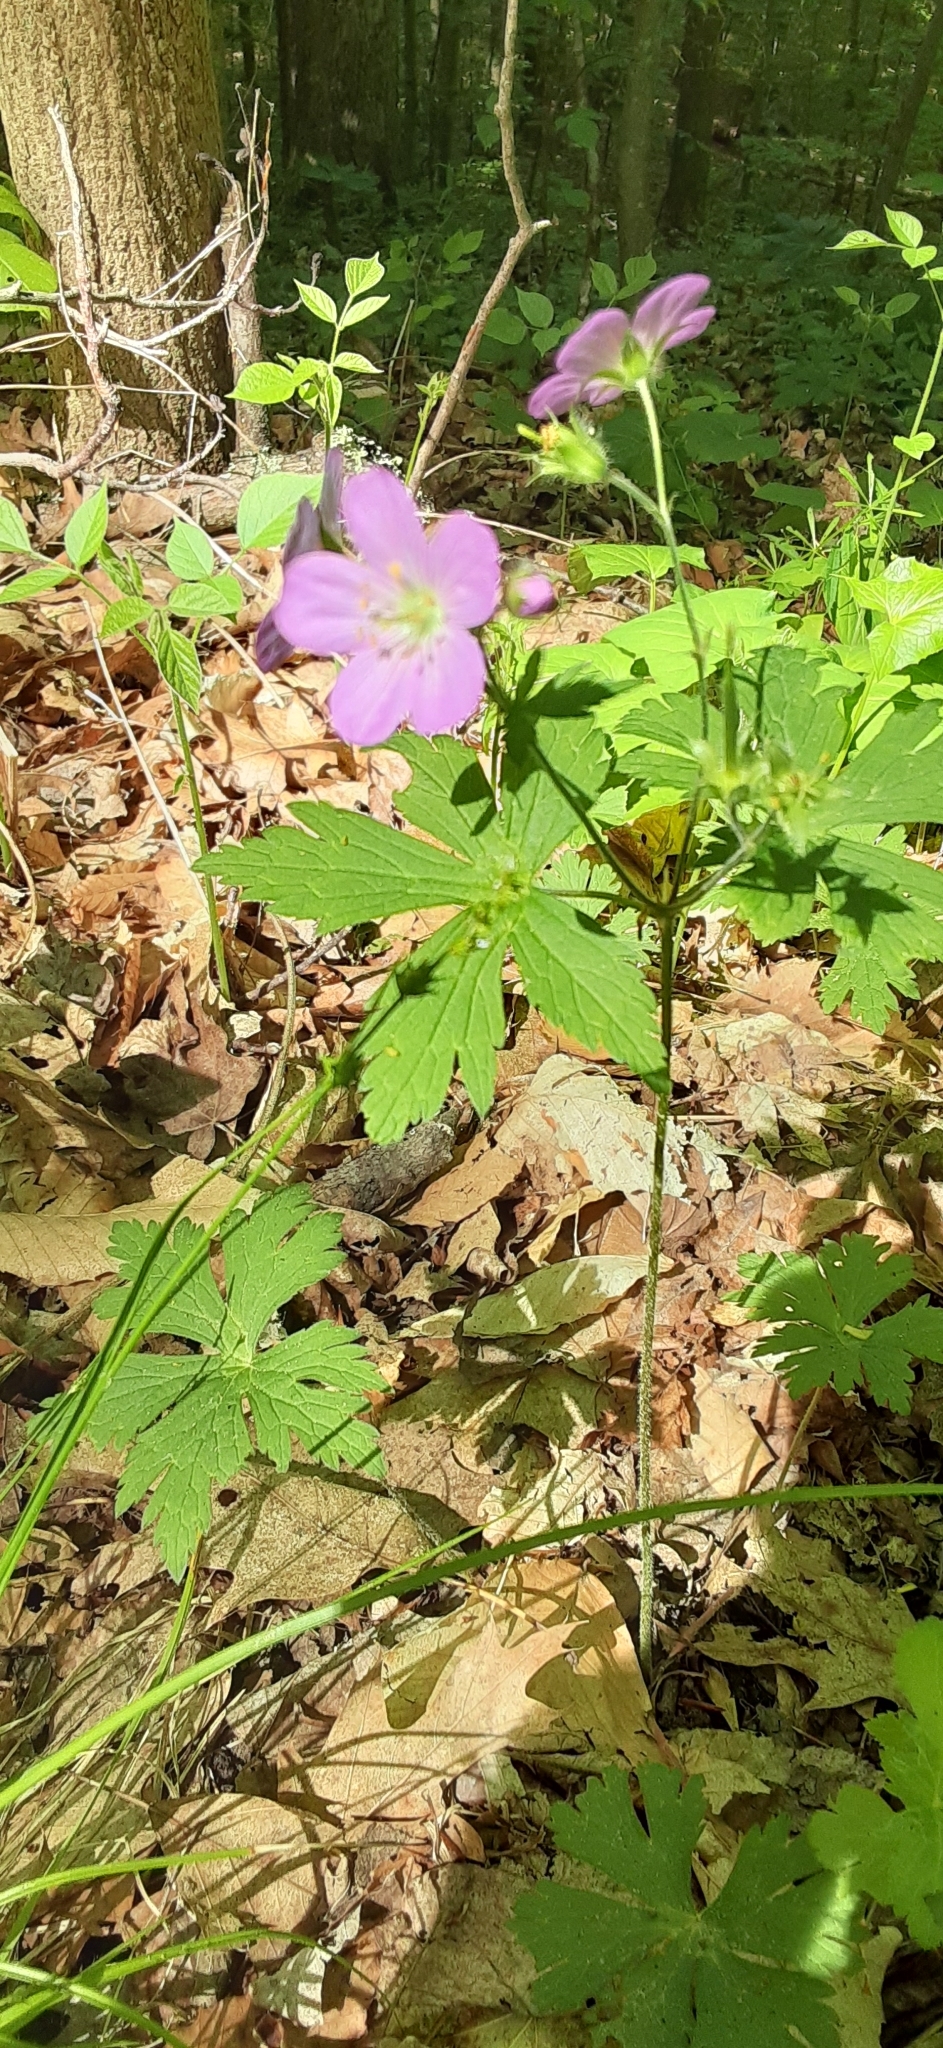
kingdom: Plantae
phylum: Tracheophyta
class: Magnoliopsida
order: Geraniales
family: Geraniaceae
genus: Geranium
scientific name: Geranium maculatum
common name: Spotted geranium
